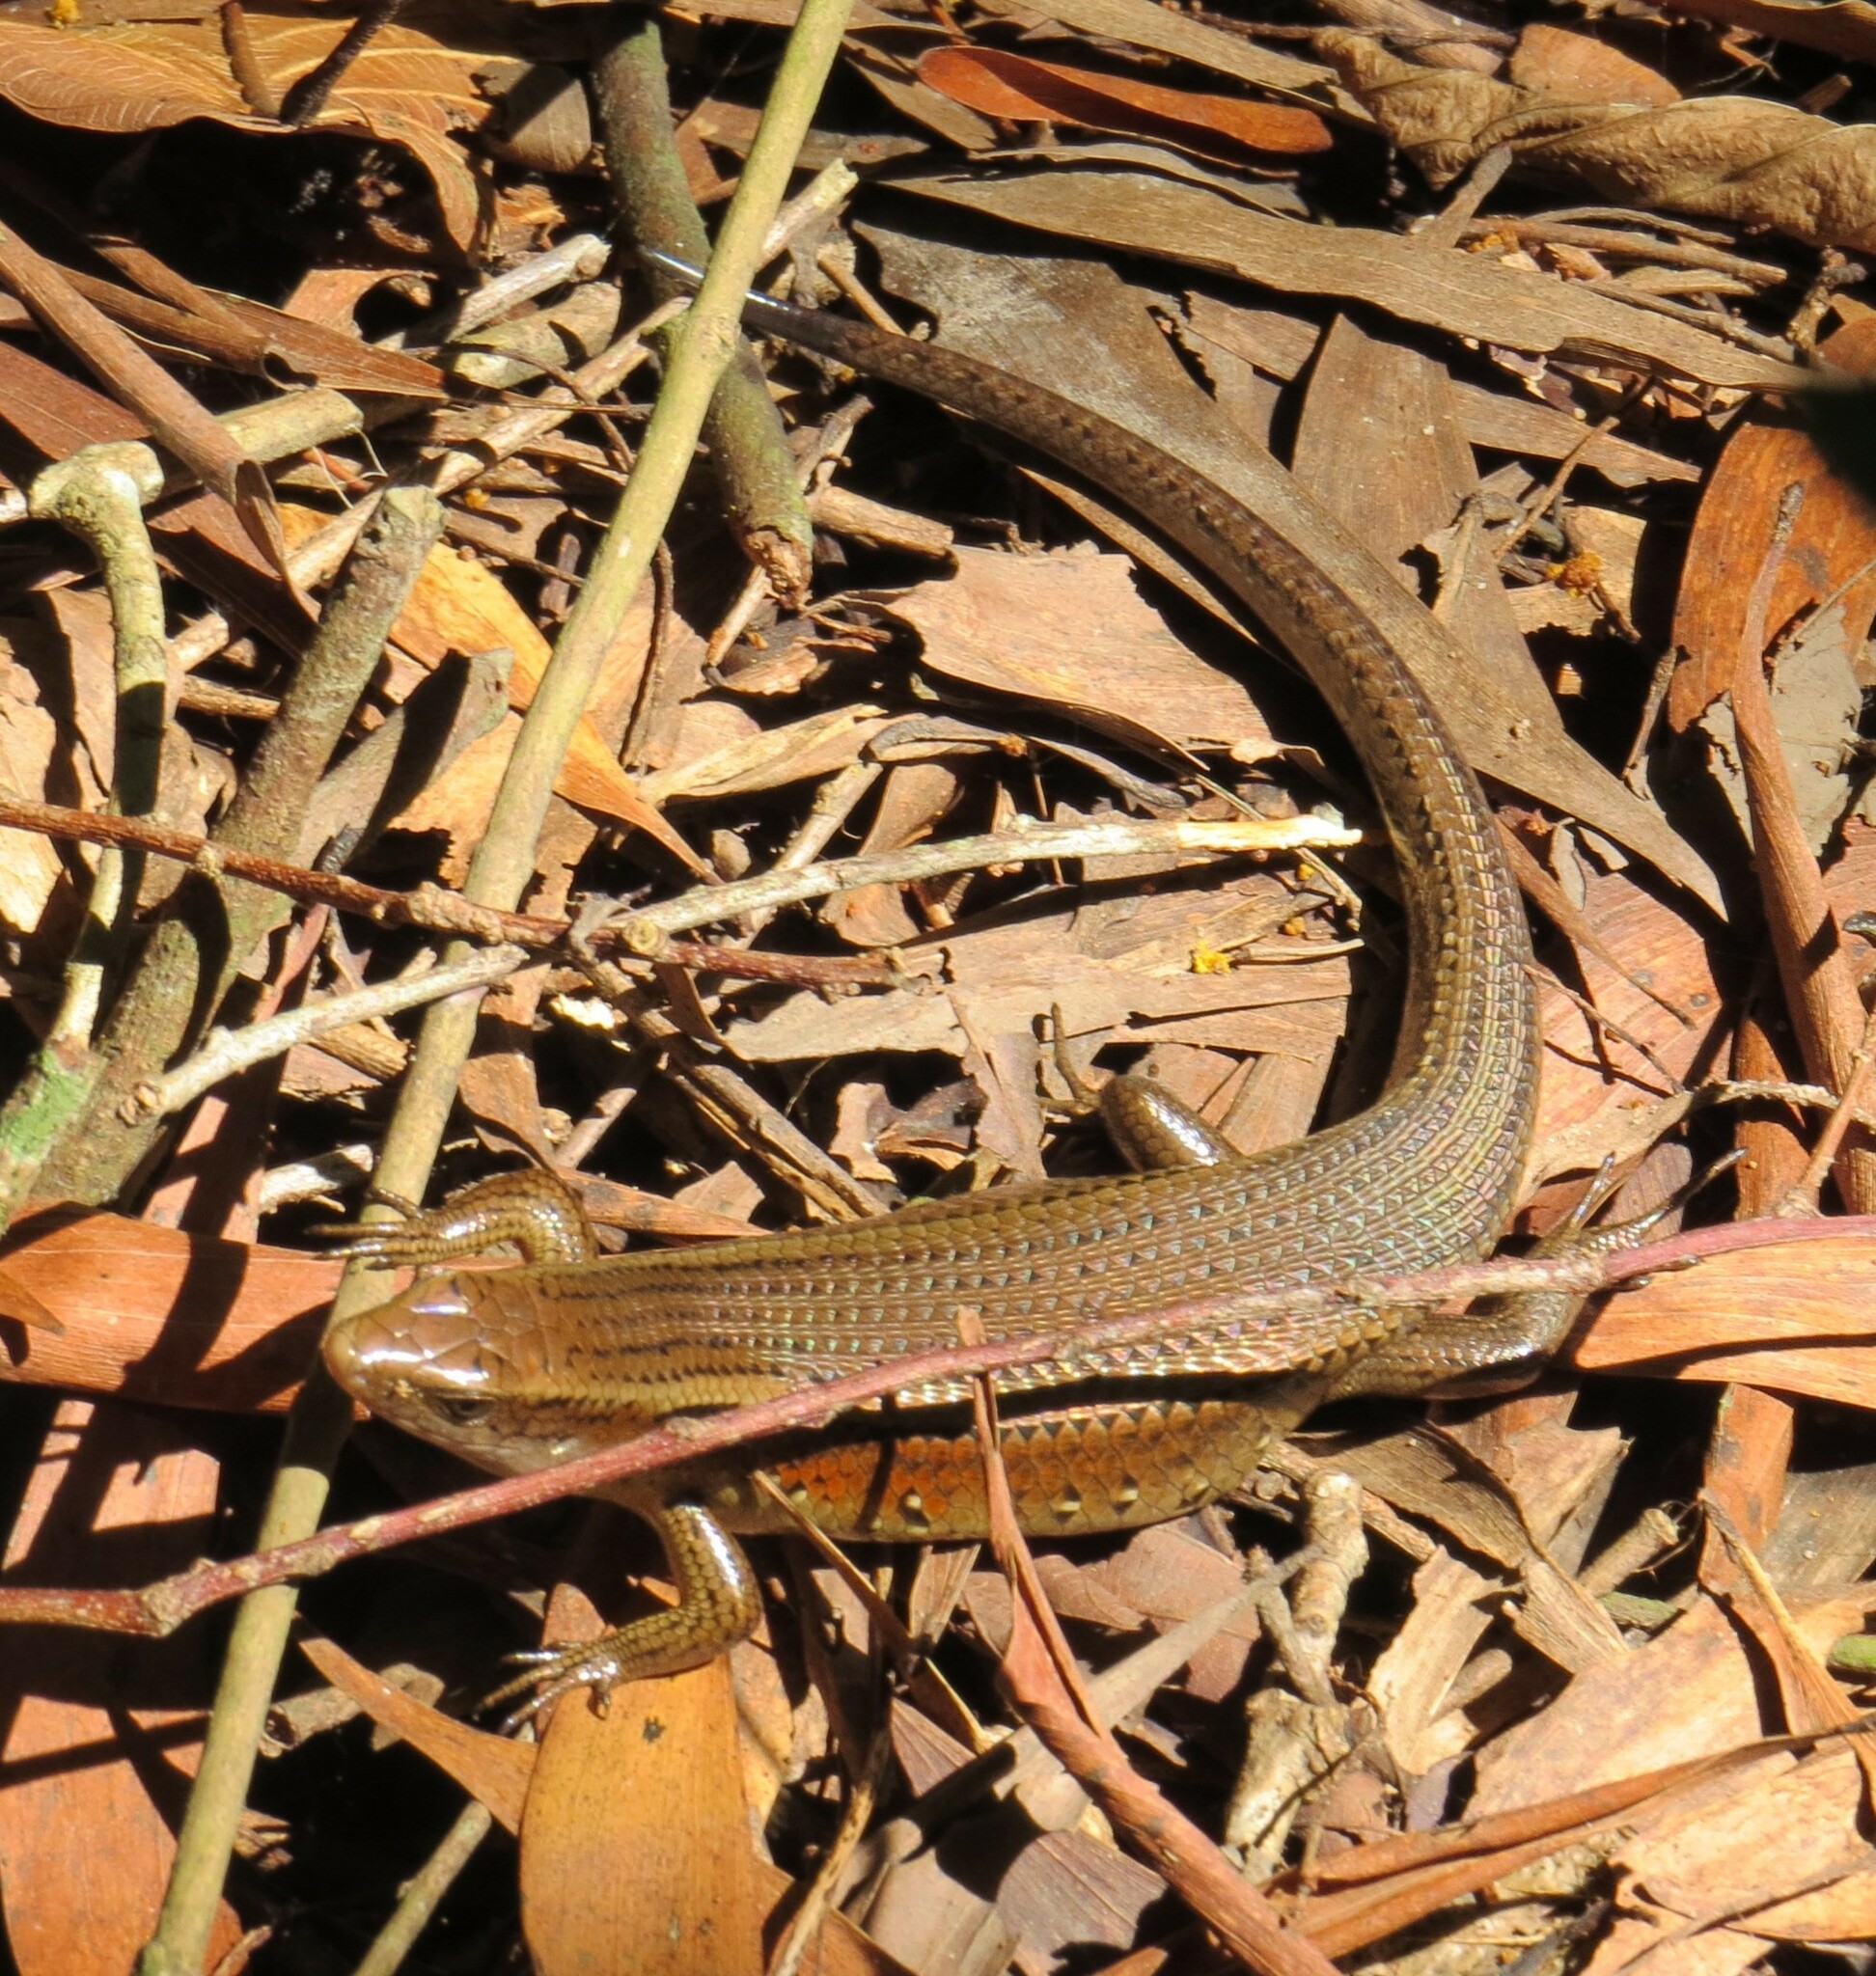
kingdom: Animalia
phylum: Chordata
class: Squamata
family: Scincidae
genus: Eutropis
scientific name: Eutropis multifasciata
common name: Common mabuya
